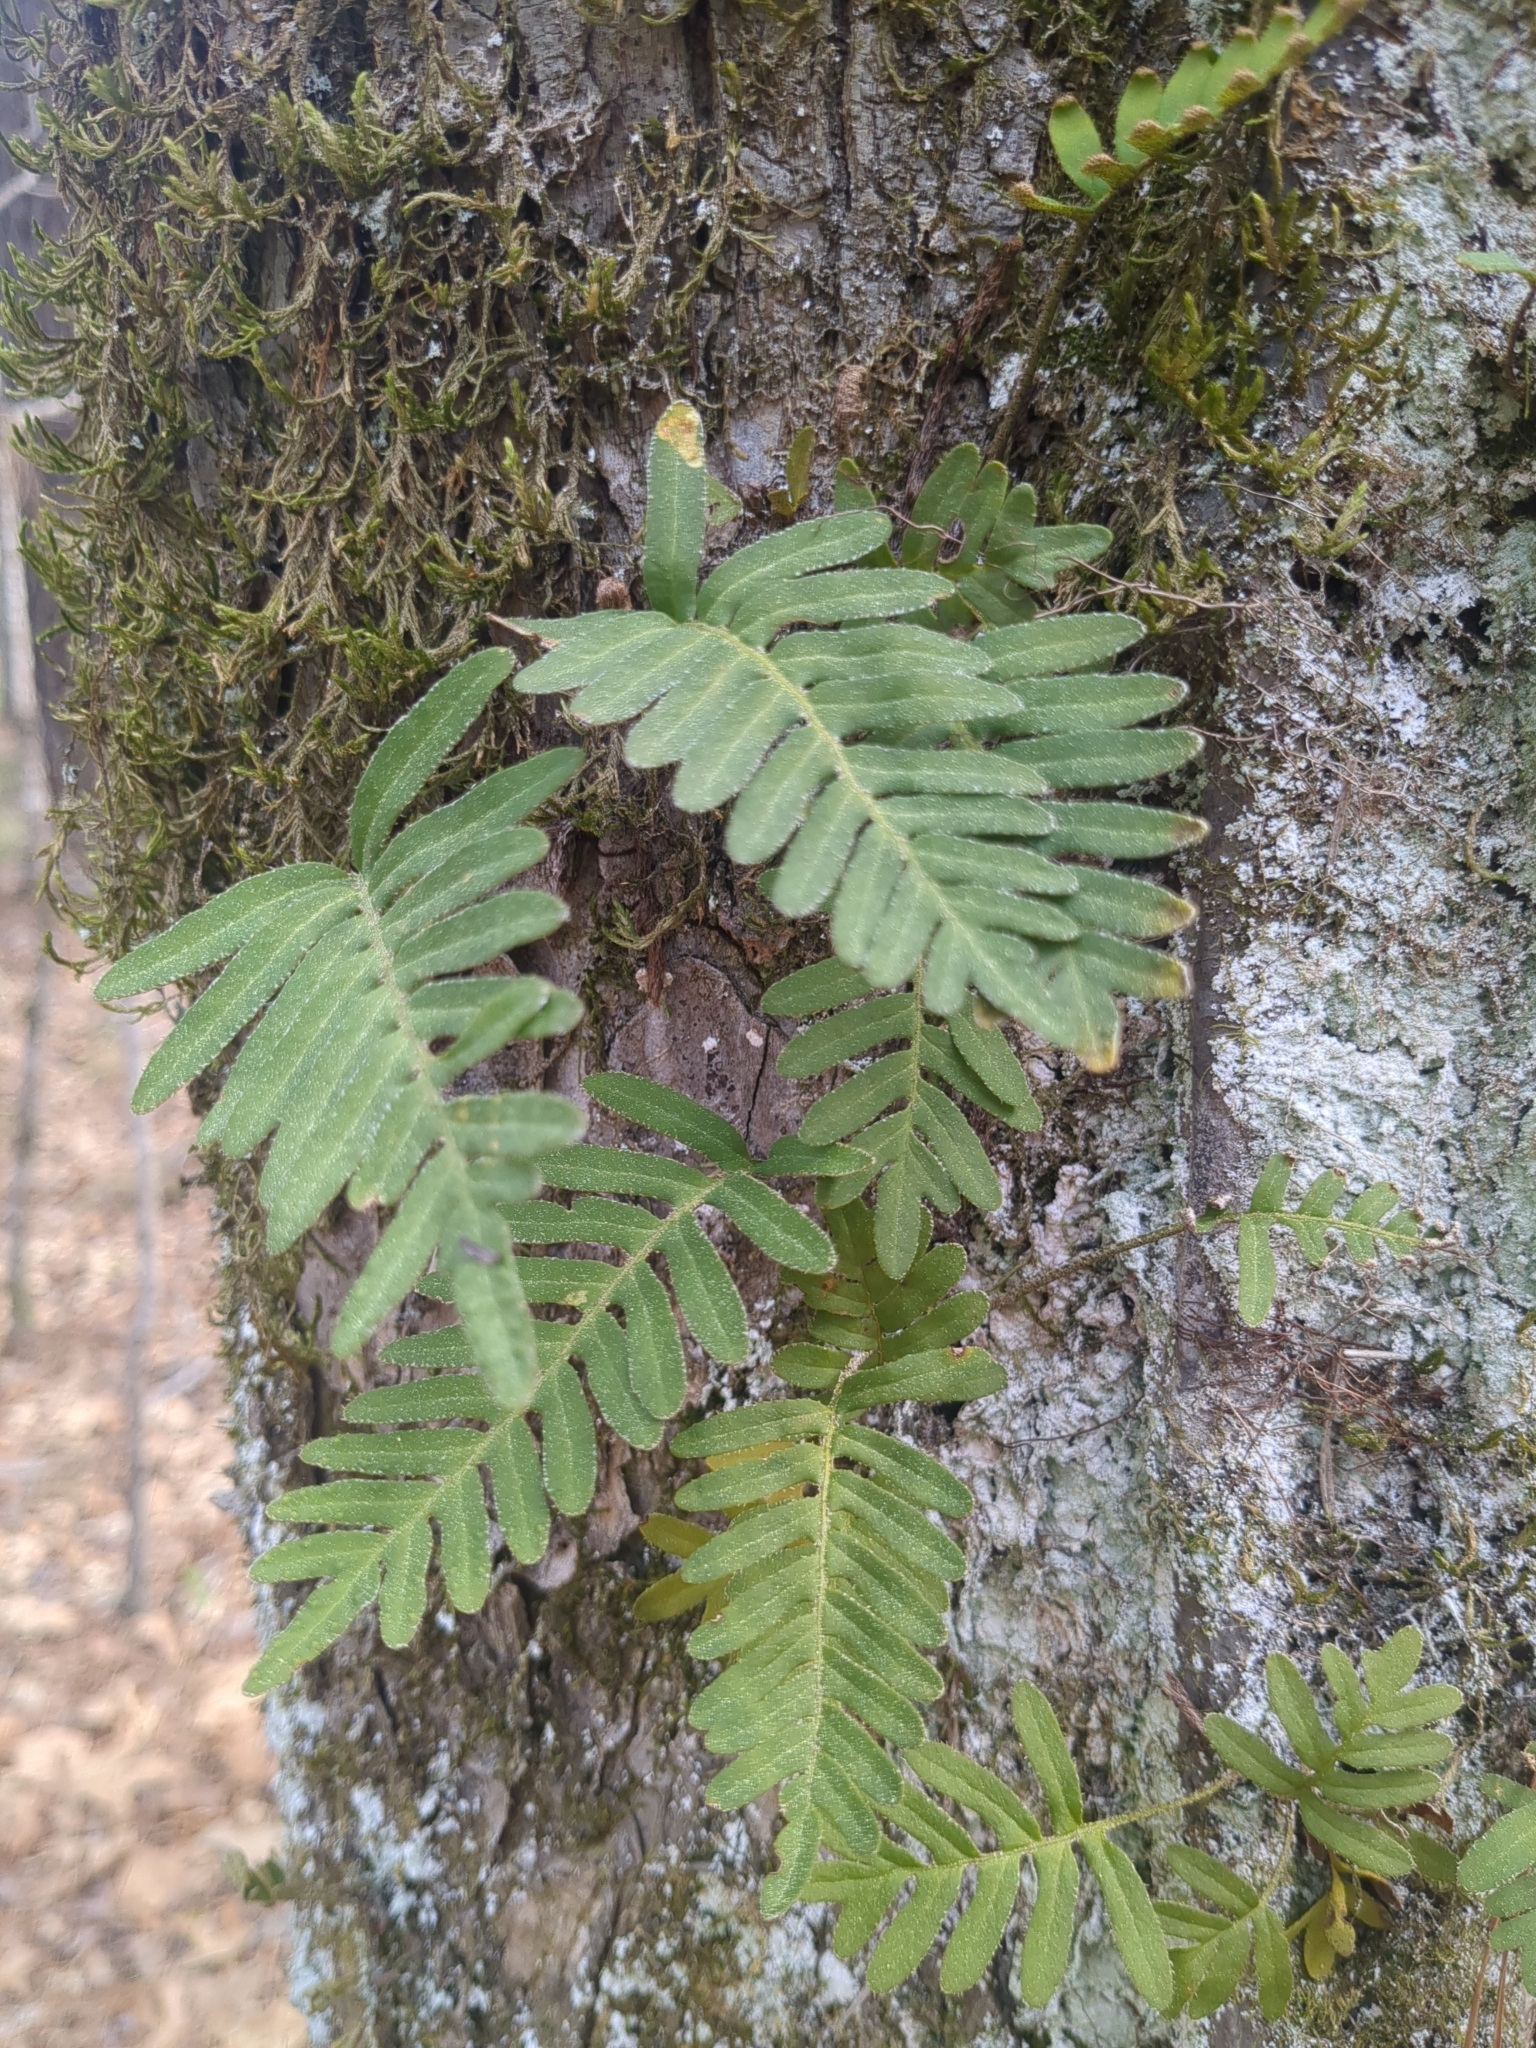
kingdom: Plantae
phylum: Tracheophyta
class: Polypodiopsida
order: Polypodiales
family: Polypodiaceae
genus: Pleopeltis
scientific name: Pleopeltis michauxiana
